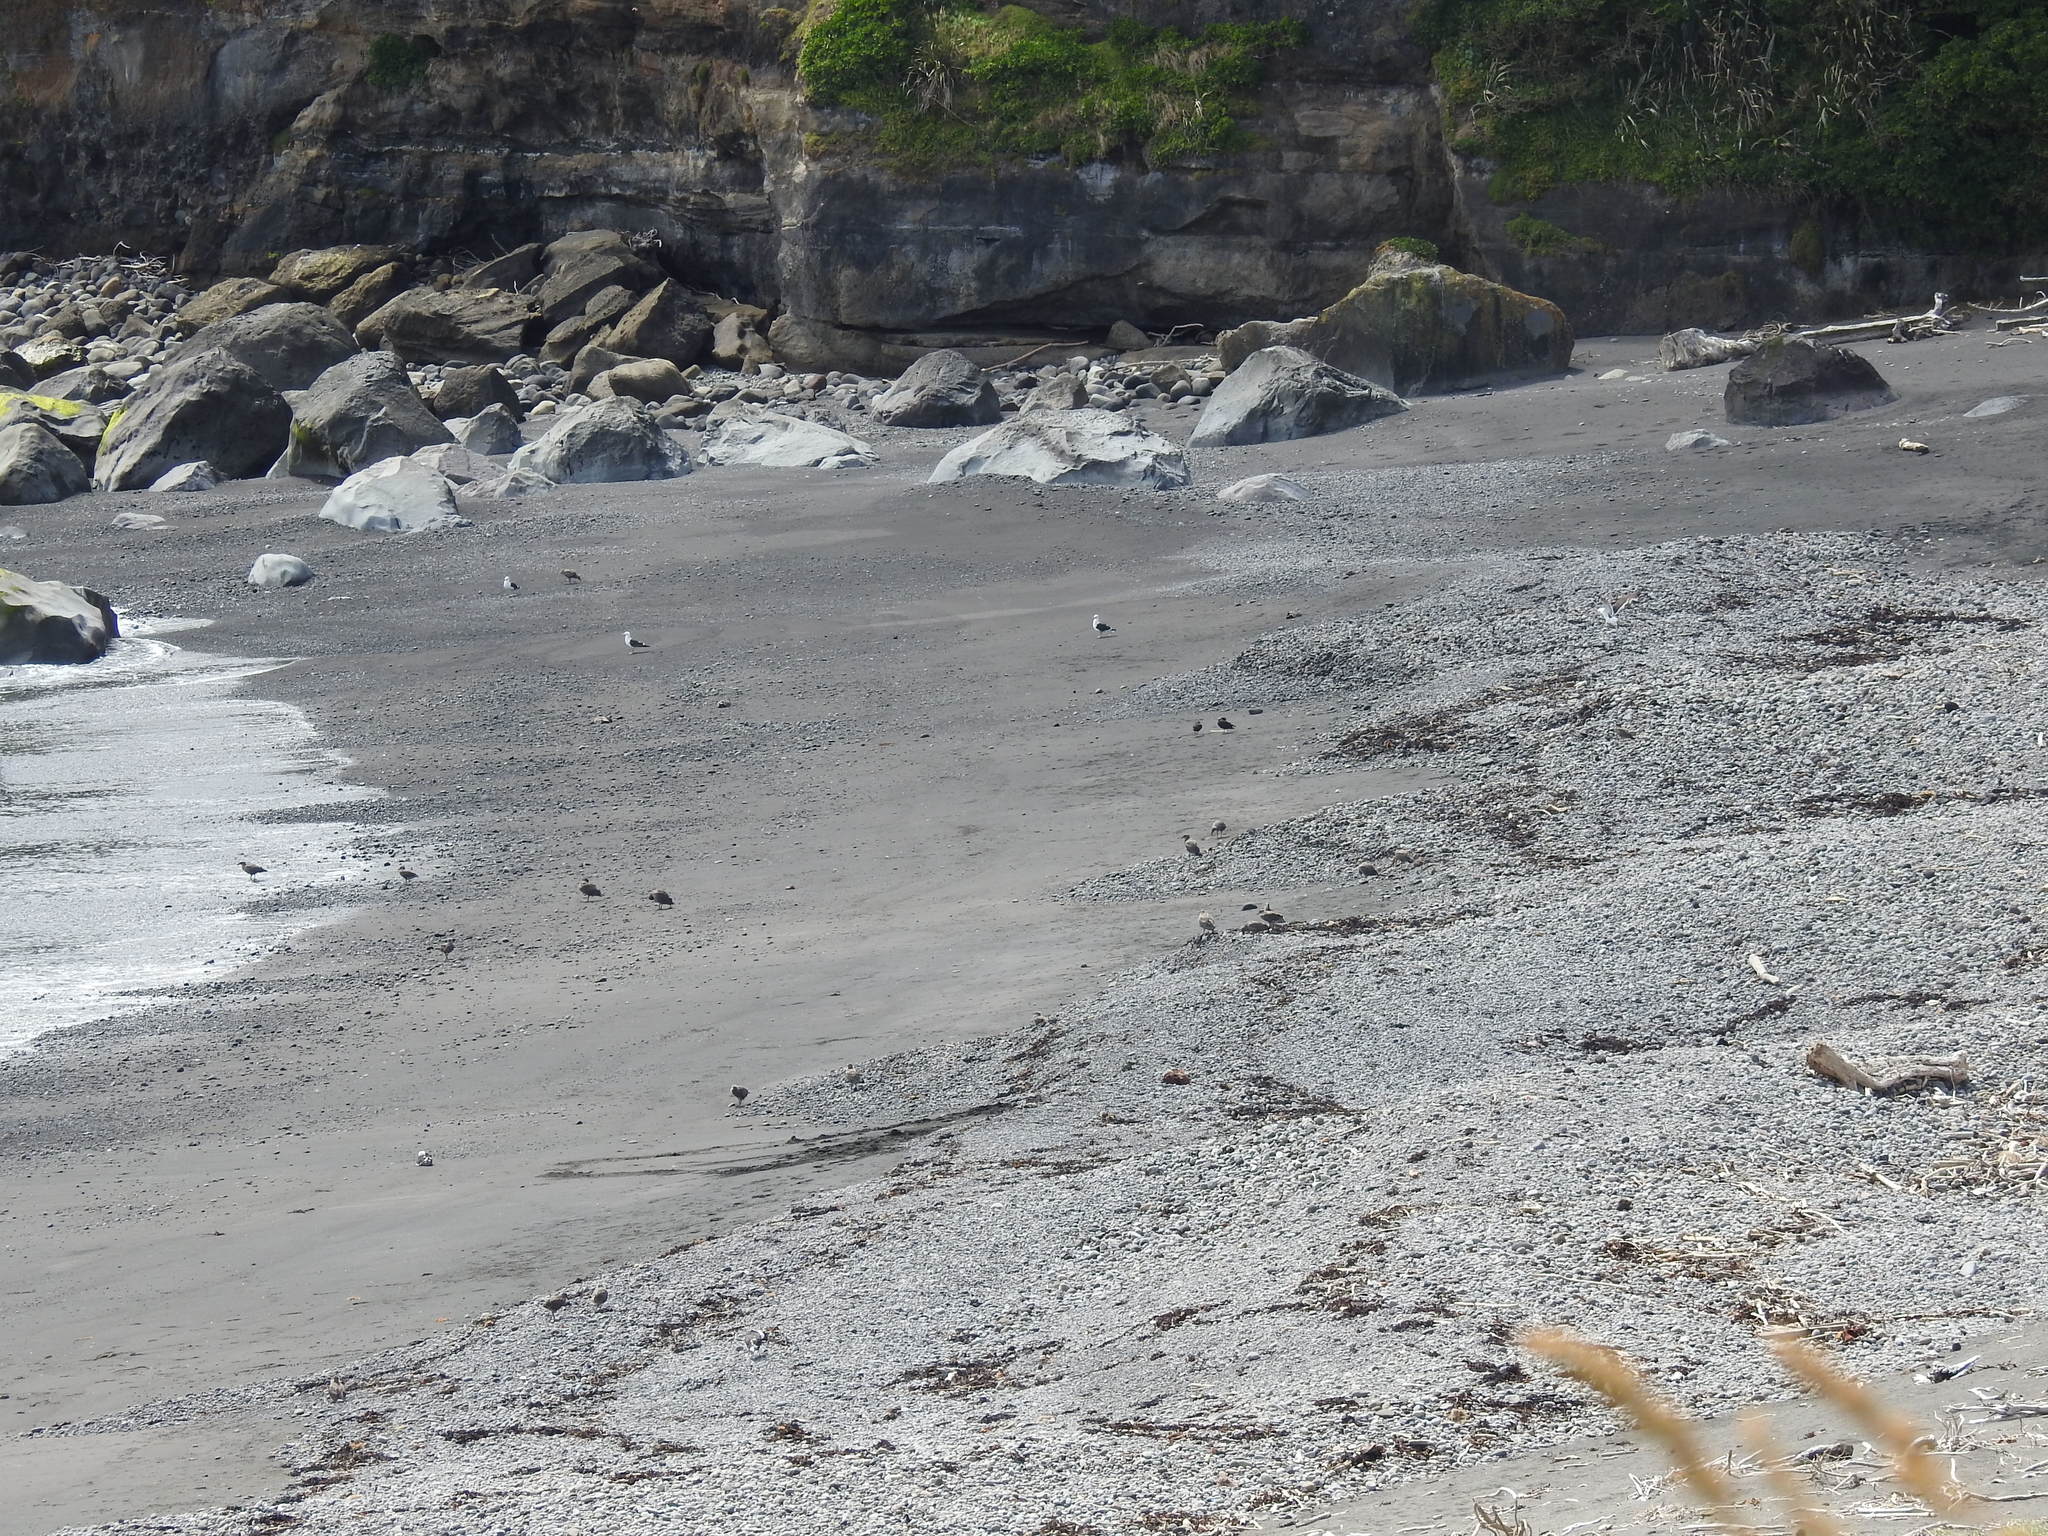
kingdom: Animalia
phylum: Chordata
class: Aves
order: Charadriiformes
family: Laridae
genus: Larus
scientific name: Larus dominicanus
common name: Kelp gull
